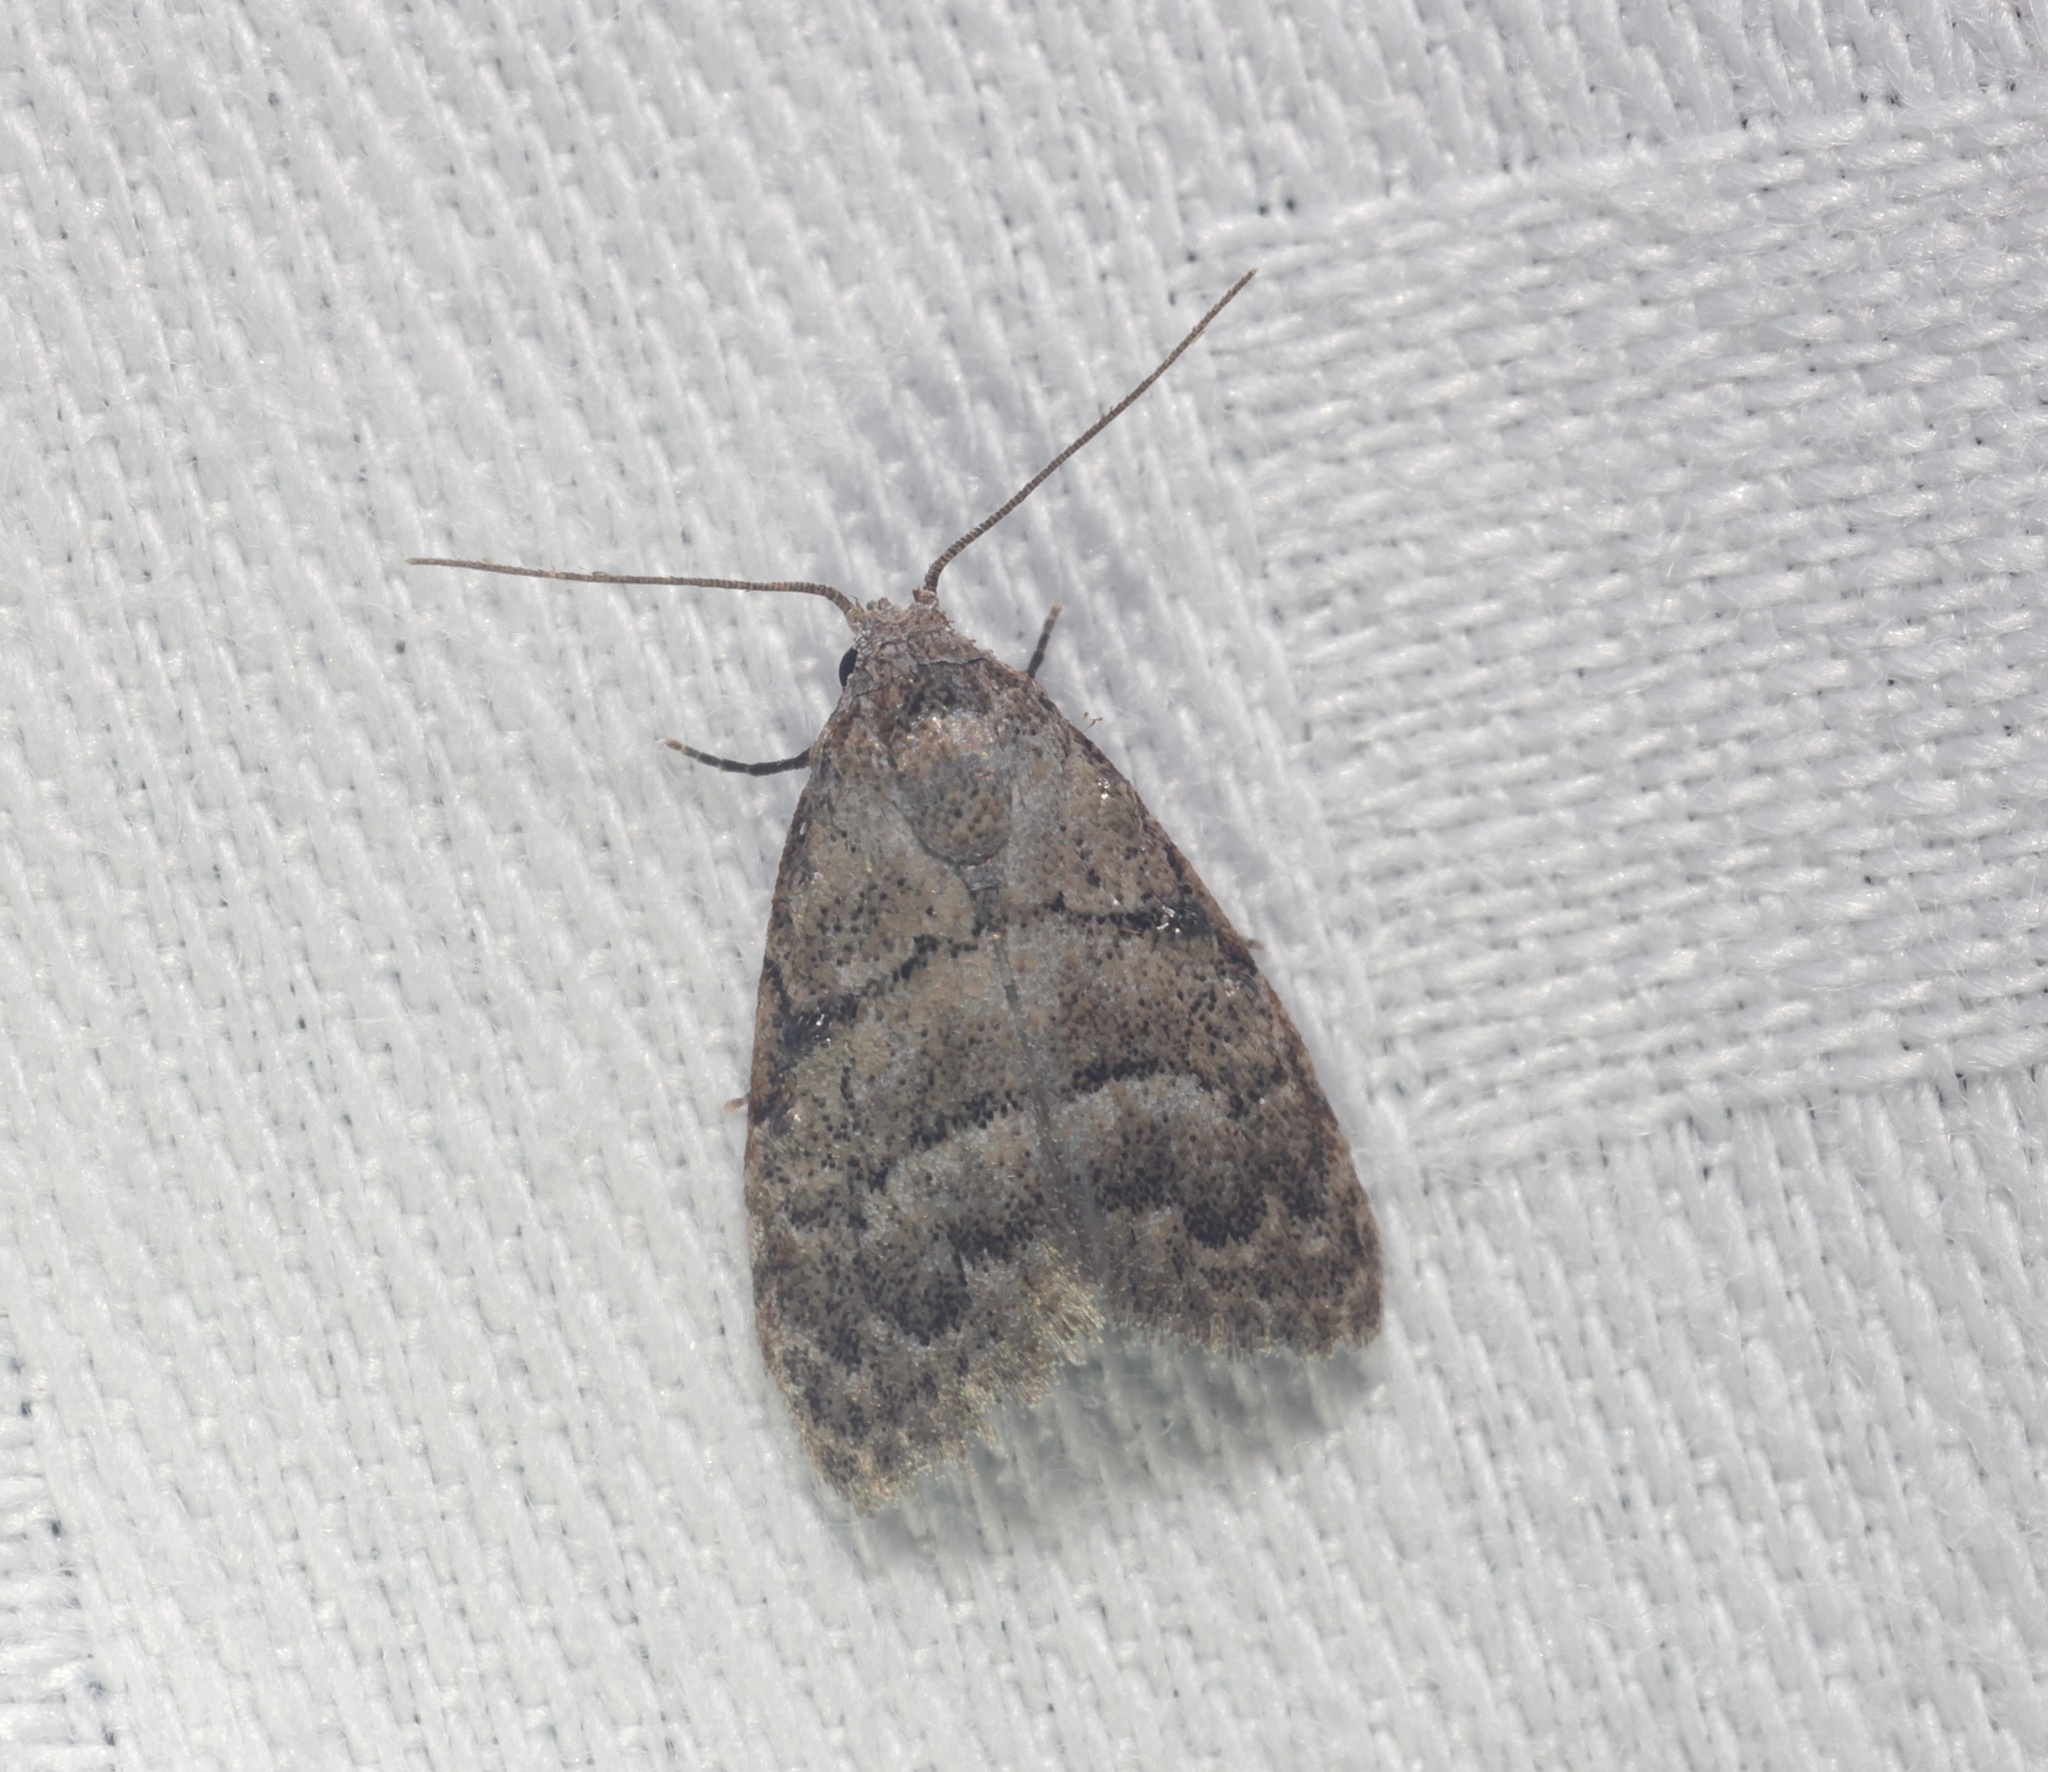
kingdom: Animalia
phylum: Arthropoda
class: Insecta
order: Lepidoptera
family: Nolidae
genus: Inouenola
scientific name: Inouenola pallescens
